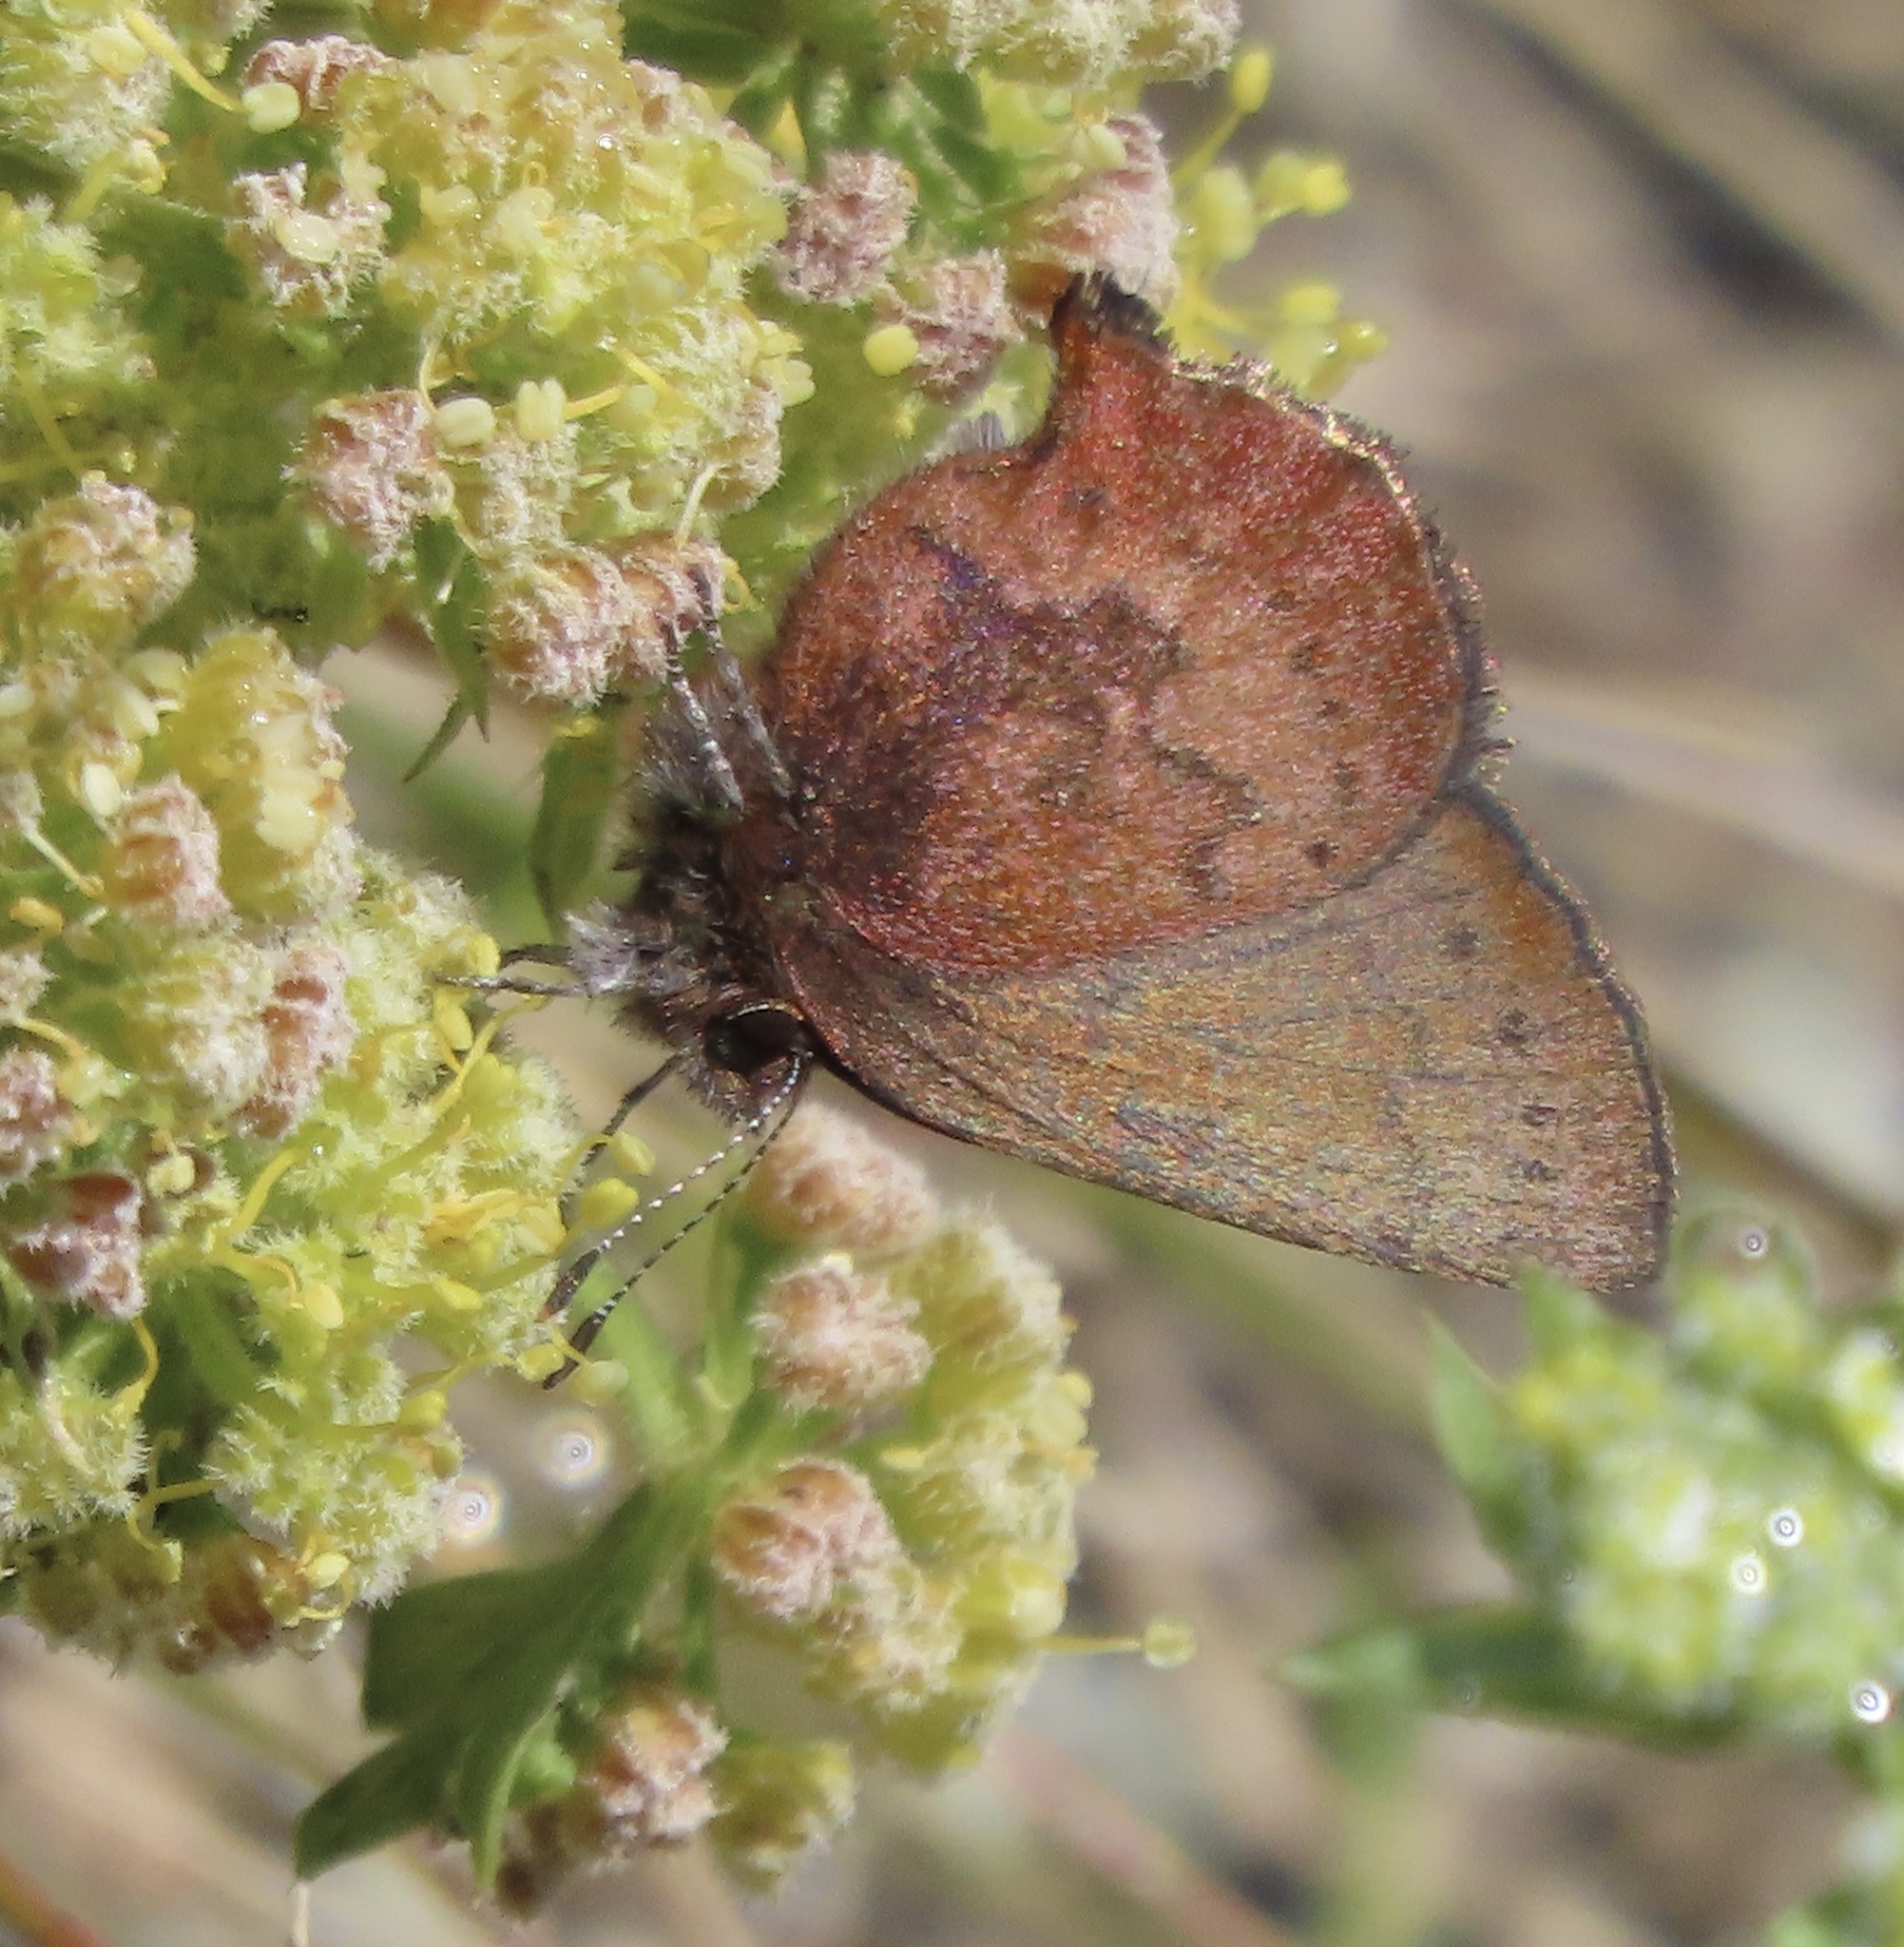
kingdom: Animalia
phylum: Arthropoda
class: Insecta
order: Lepidoptera
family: Lycaenidae
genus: Incisalia
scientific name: Incisalia irioides
